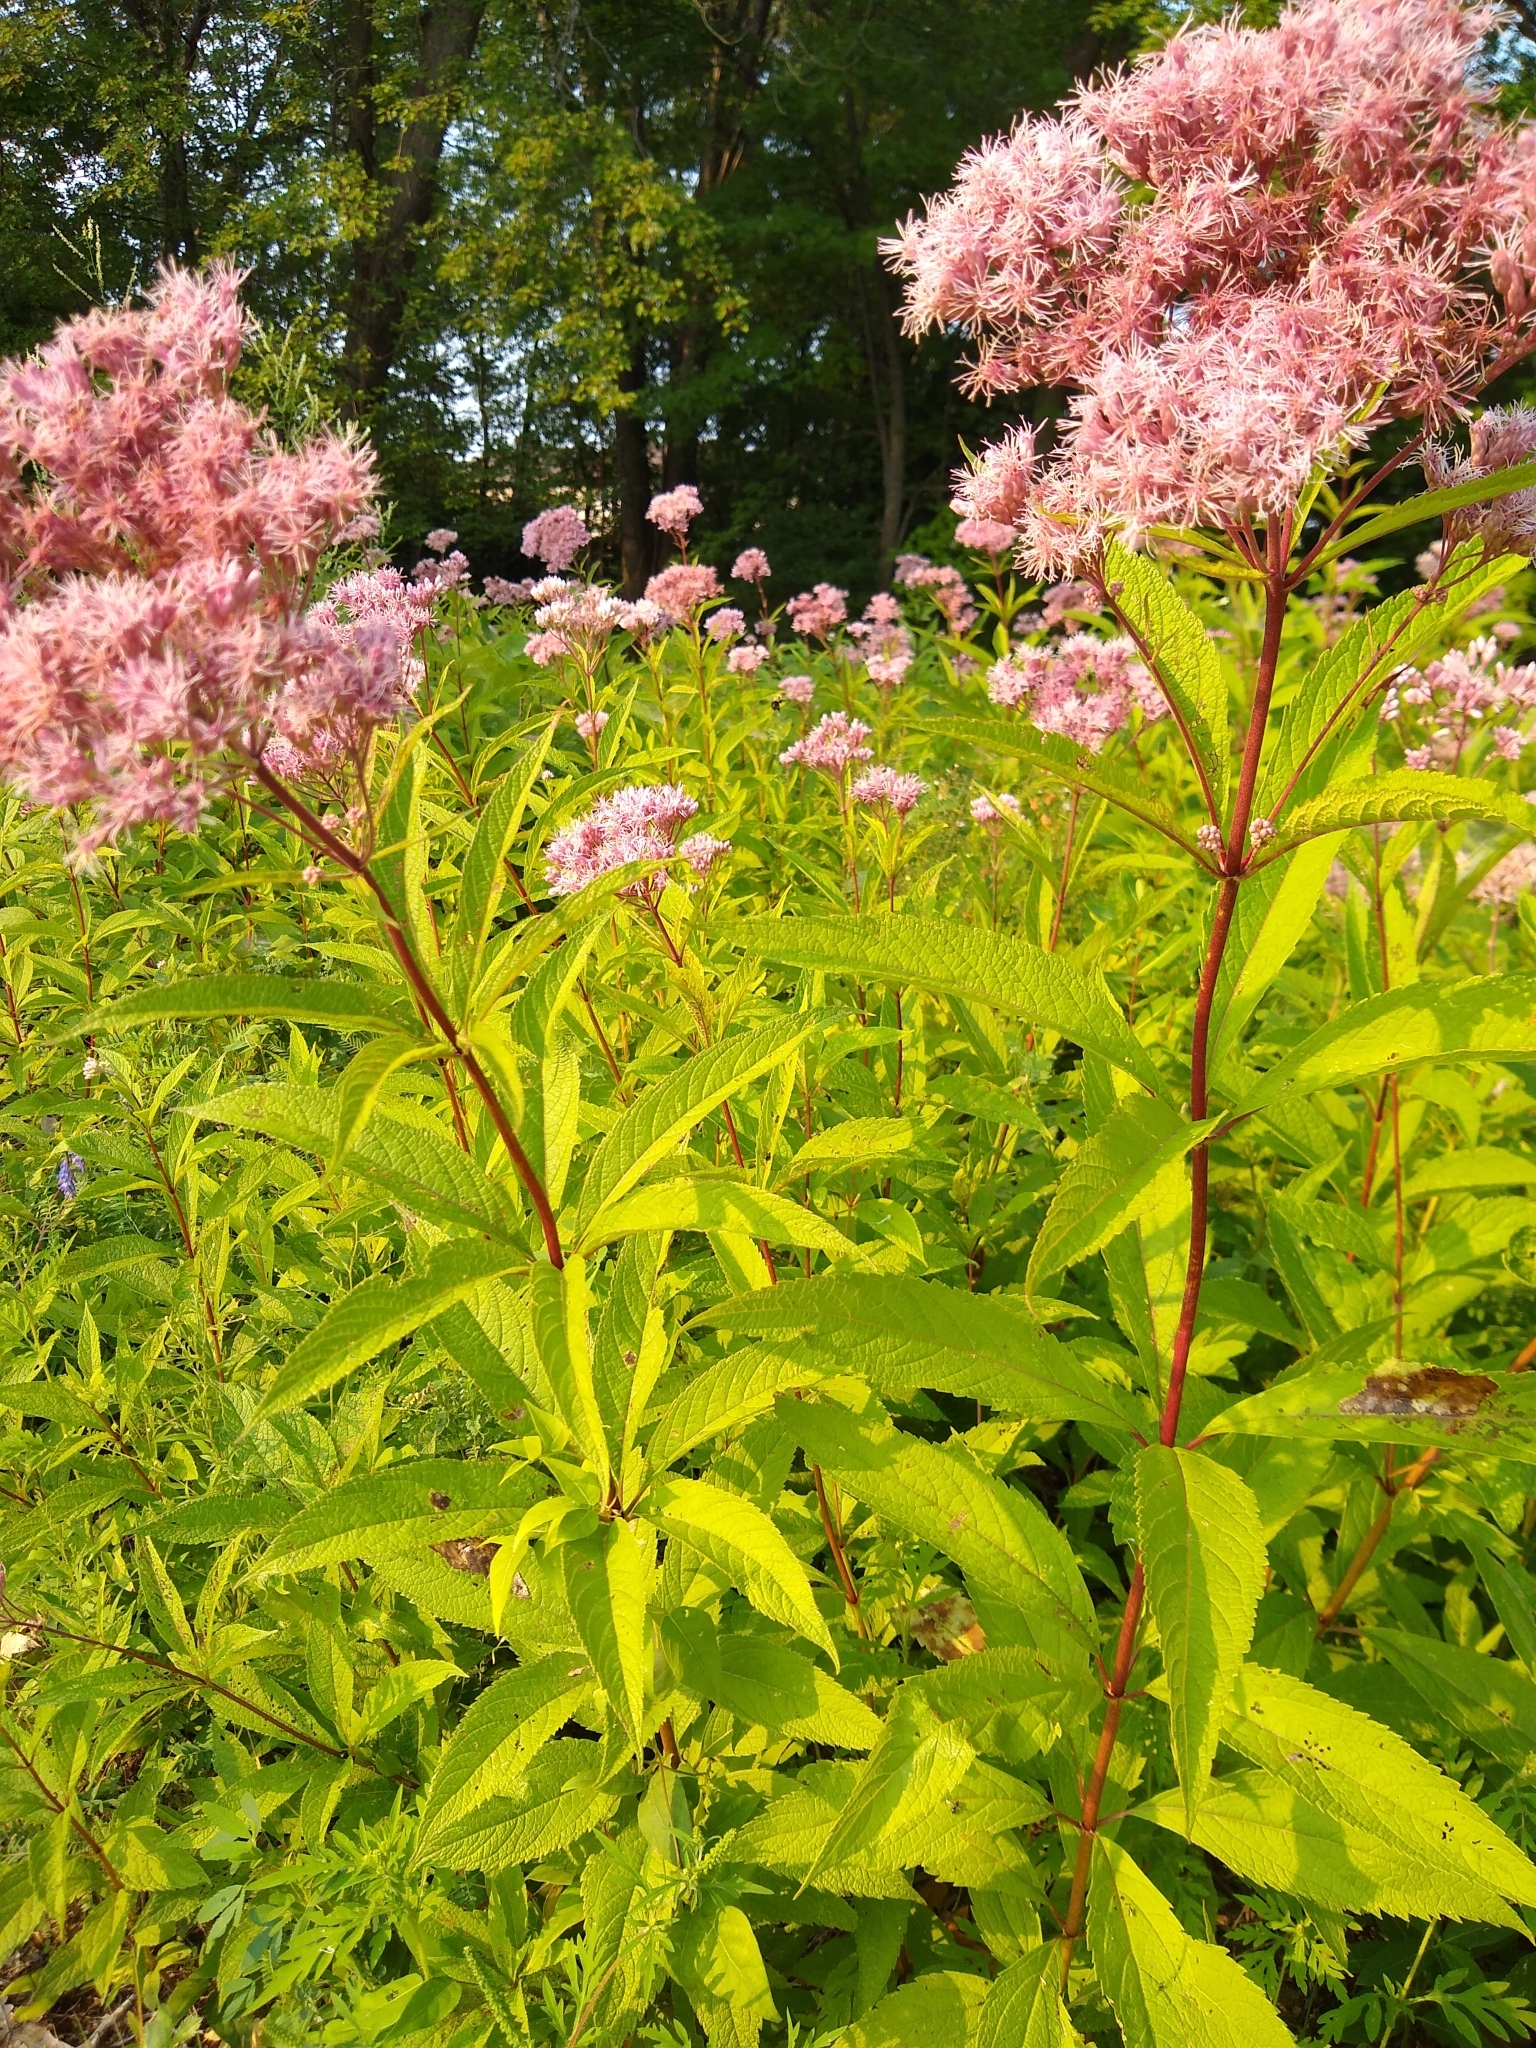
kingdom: Plantae
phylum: Tracheophyta
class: Magnoliopsida
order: Asterales
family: Asteraceae
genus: Eutrochium
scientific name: Eutrochium maculatum
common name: Spotted joe pye weed
